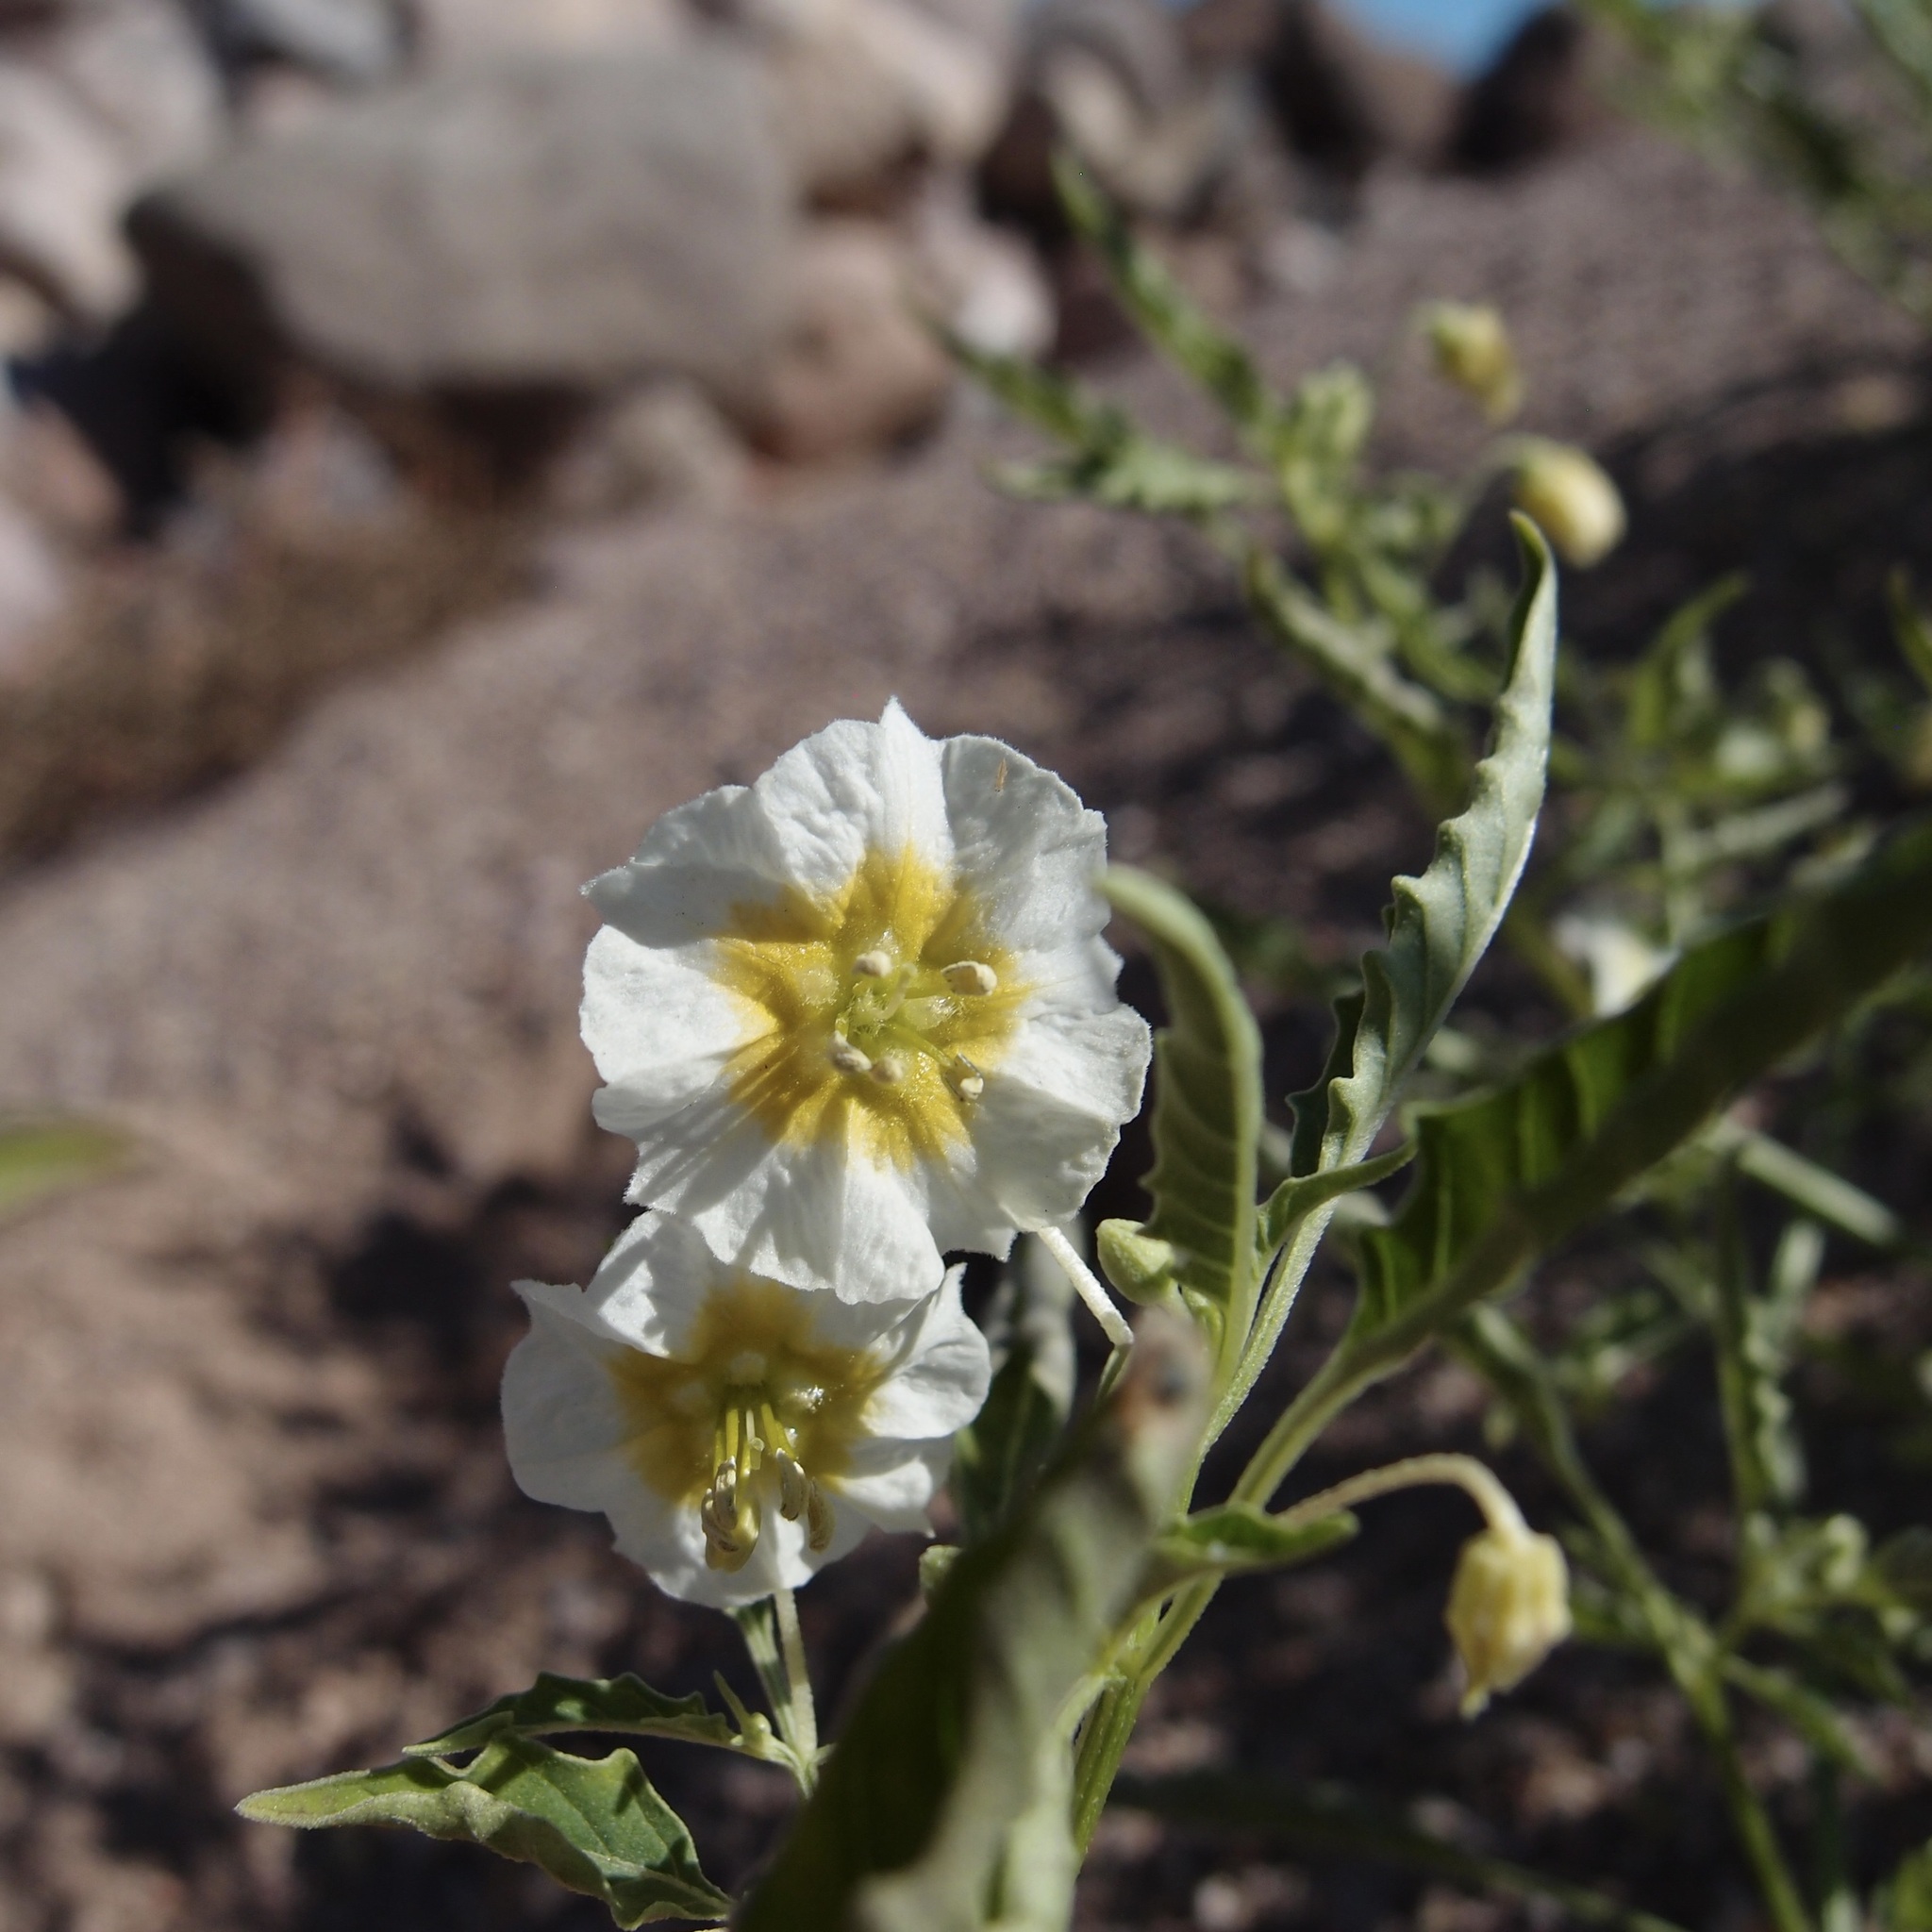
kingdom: Plantae
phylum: Tracheophyta
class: Magnoliopsida
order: Solanales
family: Solanaceae
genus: Physalis
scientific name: Physalis acutifolia
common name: Wright's ground-cherry
